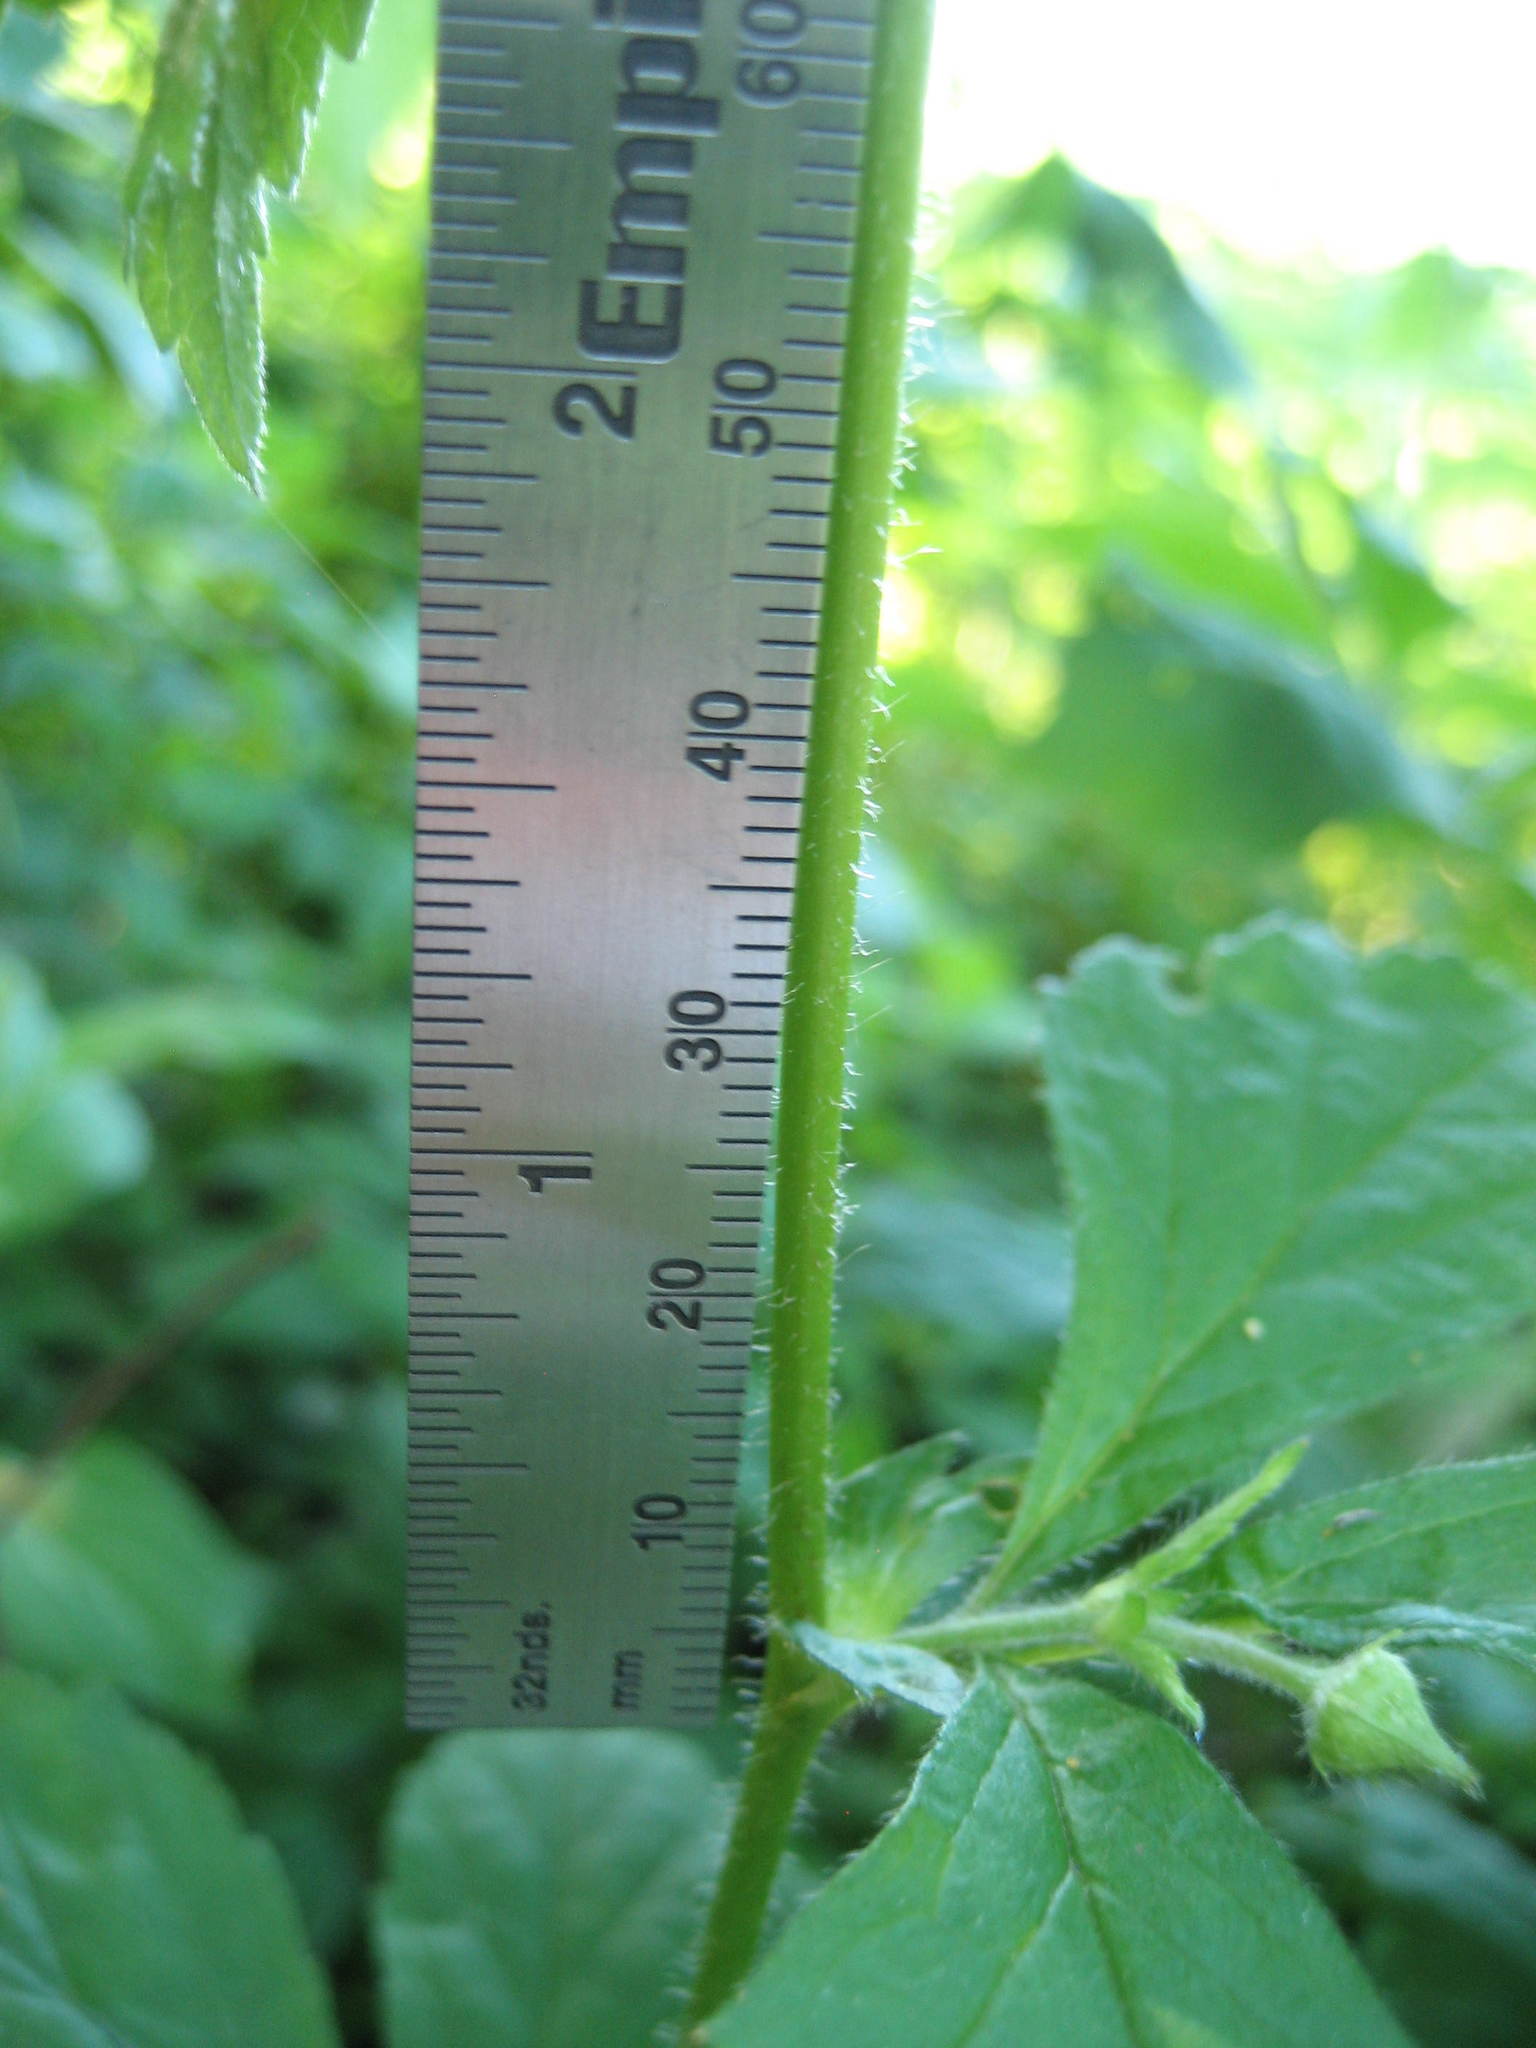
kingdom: Plantae
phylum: Tracheophyta
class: Magnoliopsida
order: Rosales
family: Rosaceae
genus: Geum
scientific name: Geum canadense
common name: White avens
